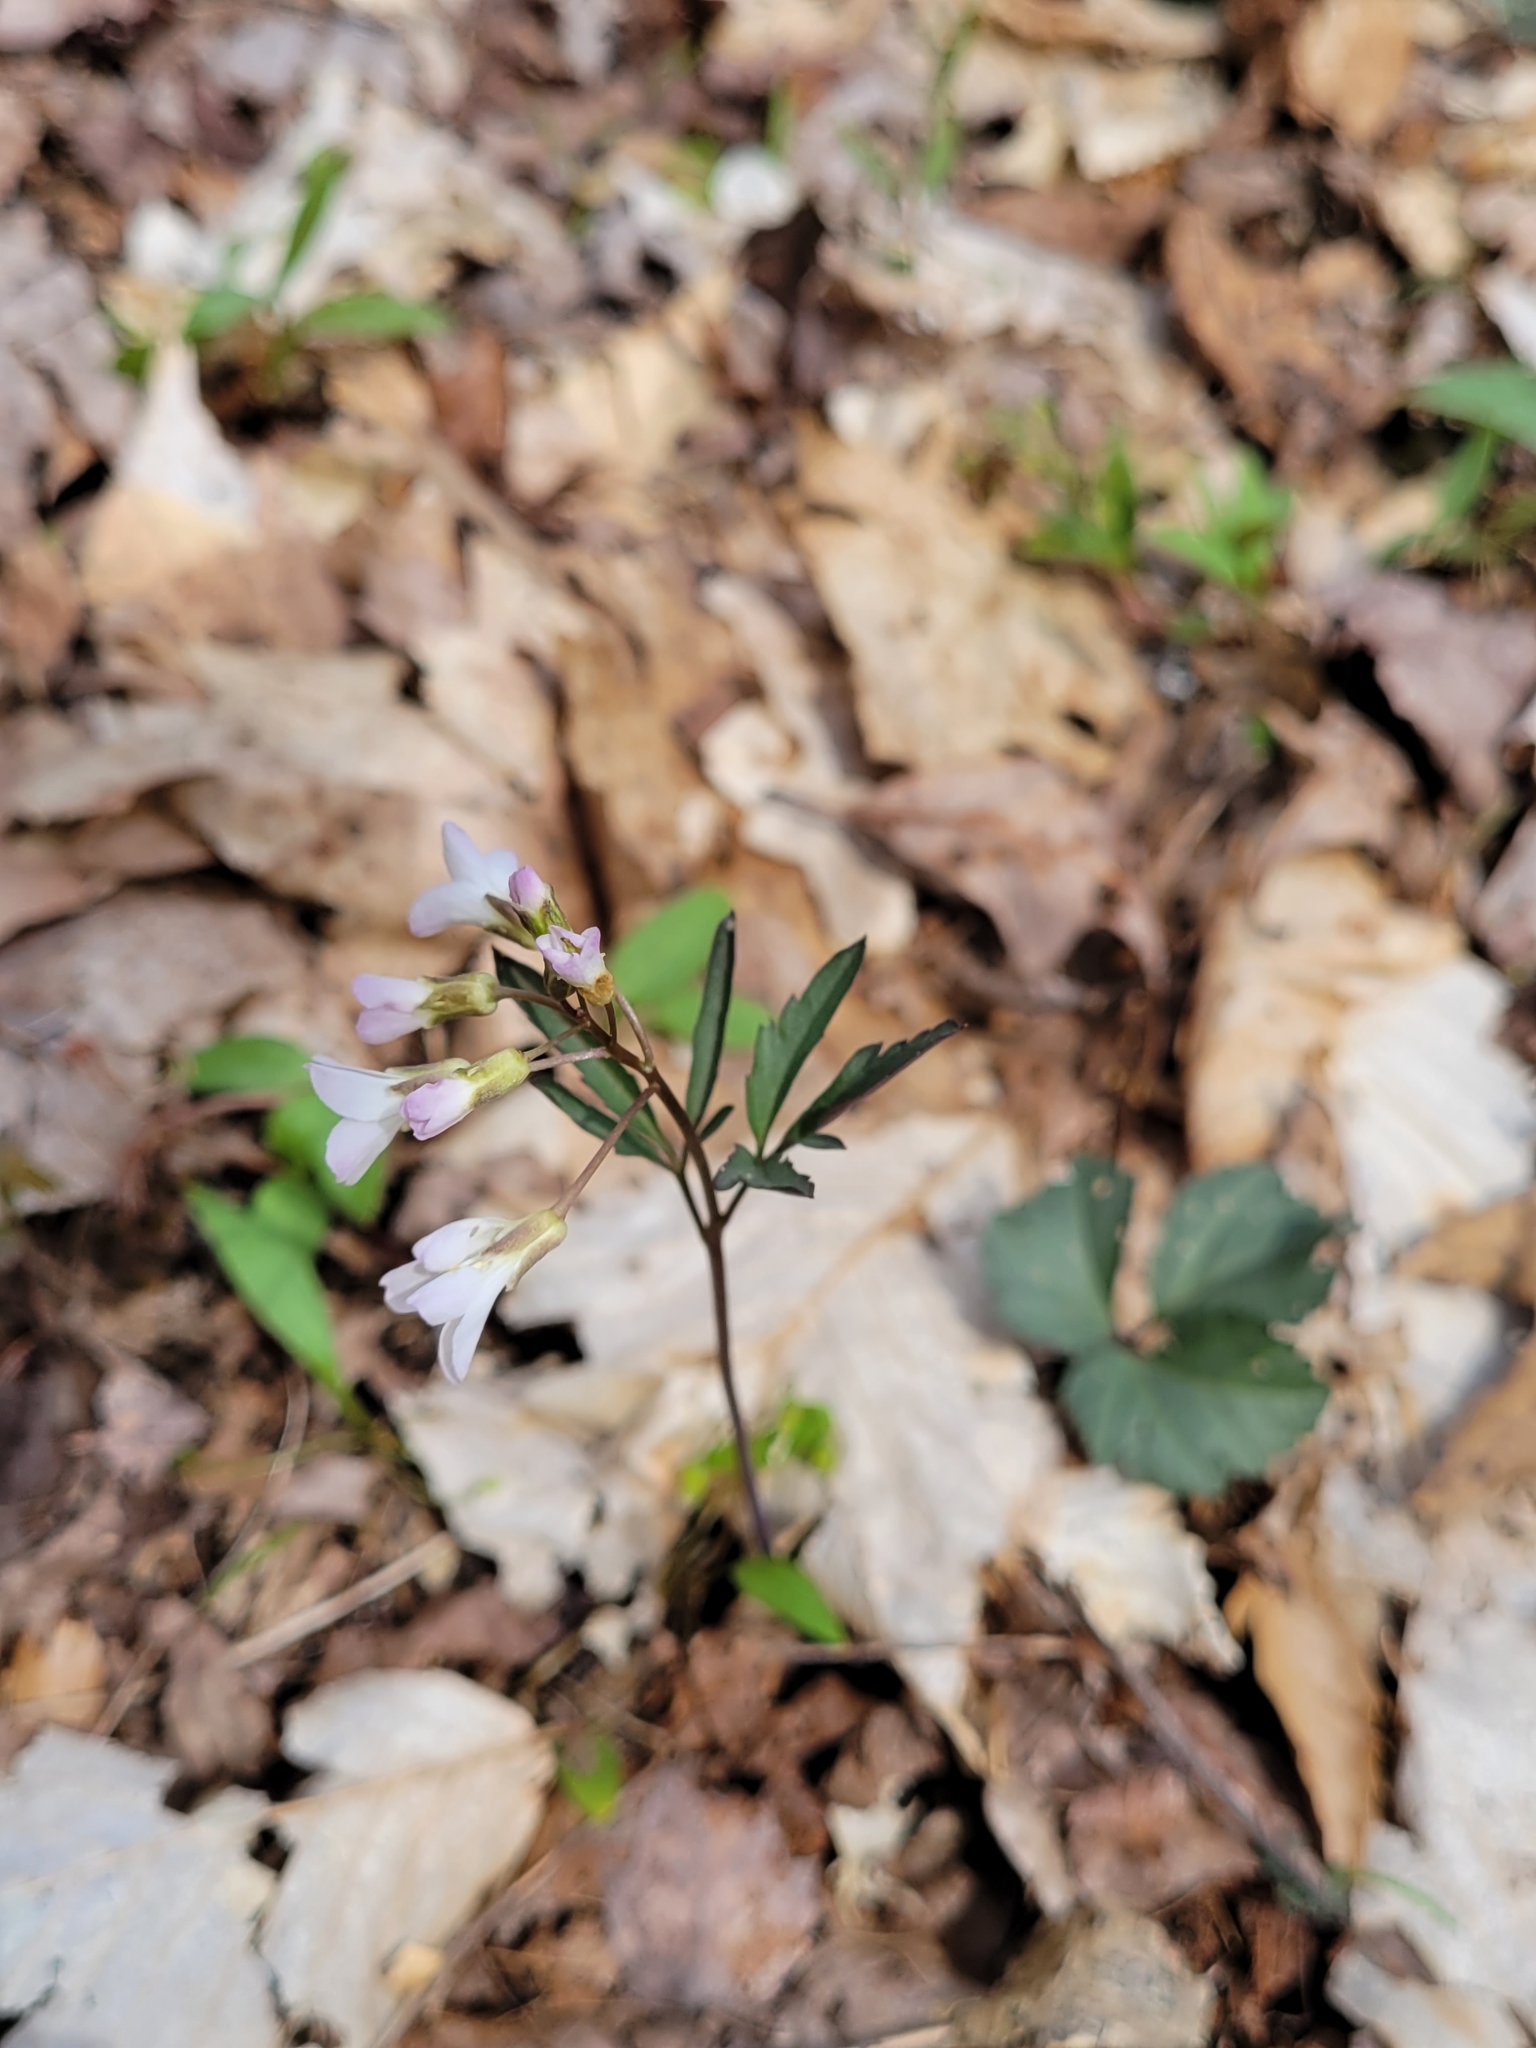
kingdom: Plantae
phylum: Tracheophyta
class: Magnoliopsida
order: Brassicales
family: Brassicaceae
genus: Cardamine
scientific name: Cardamine angustata
